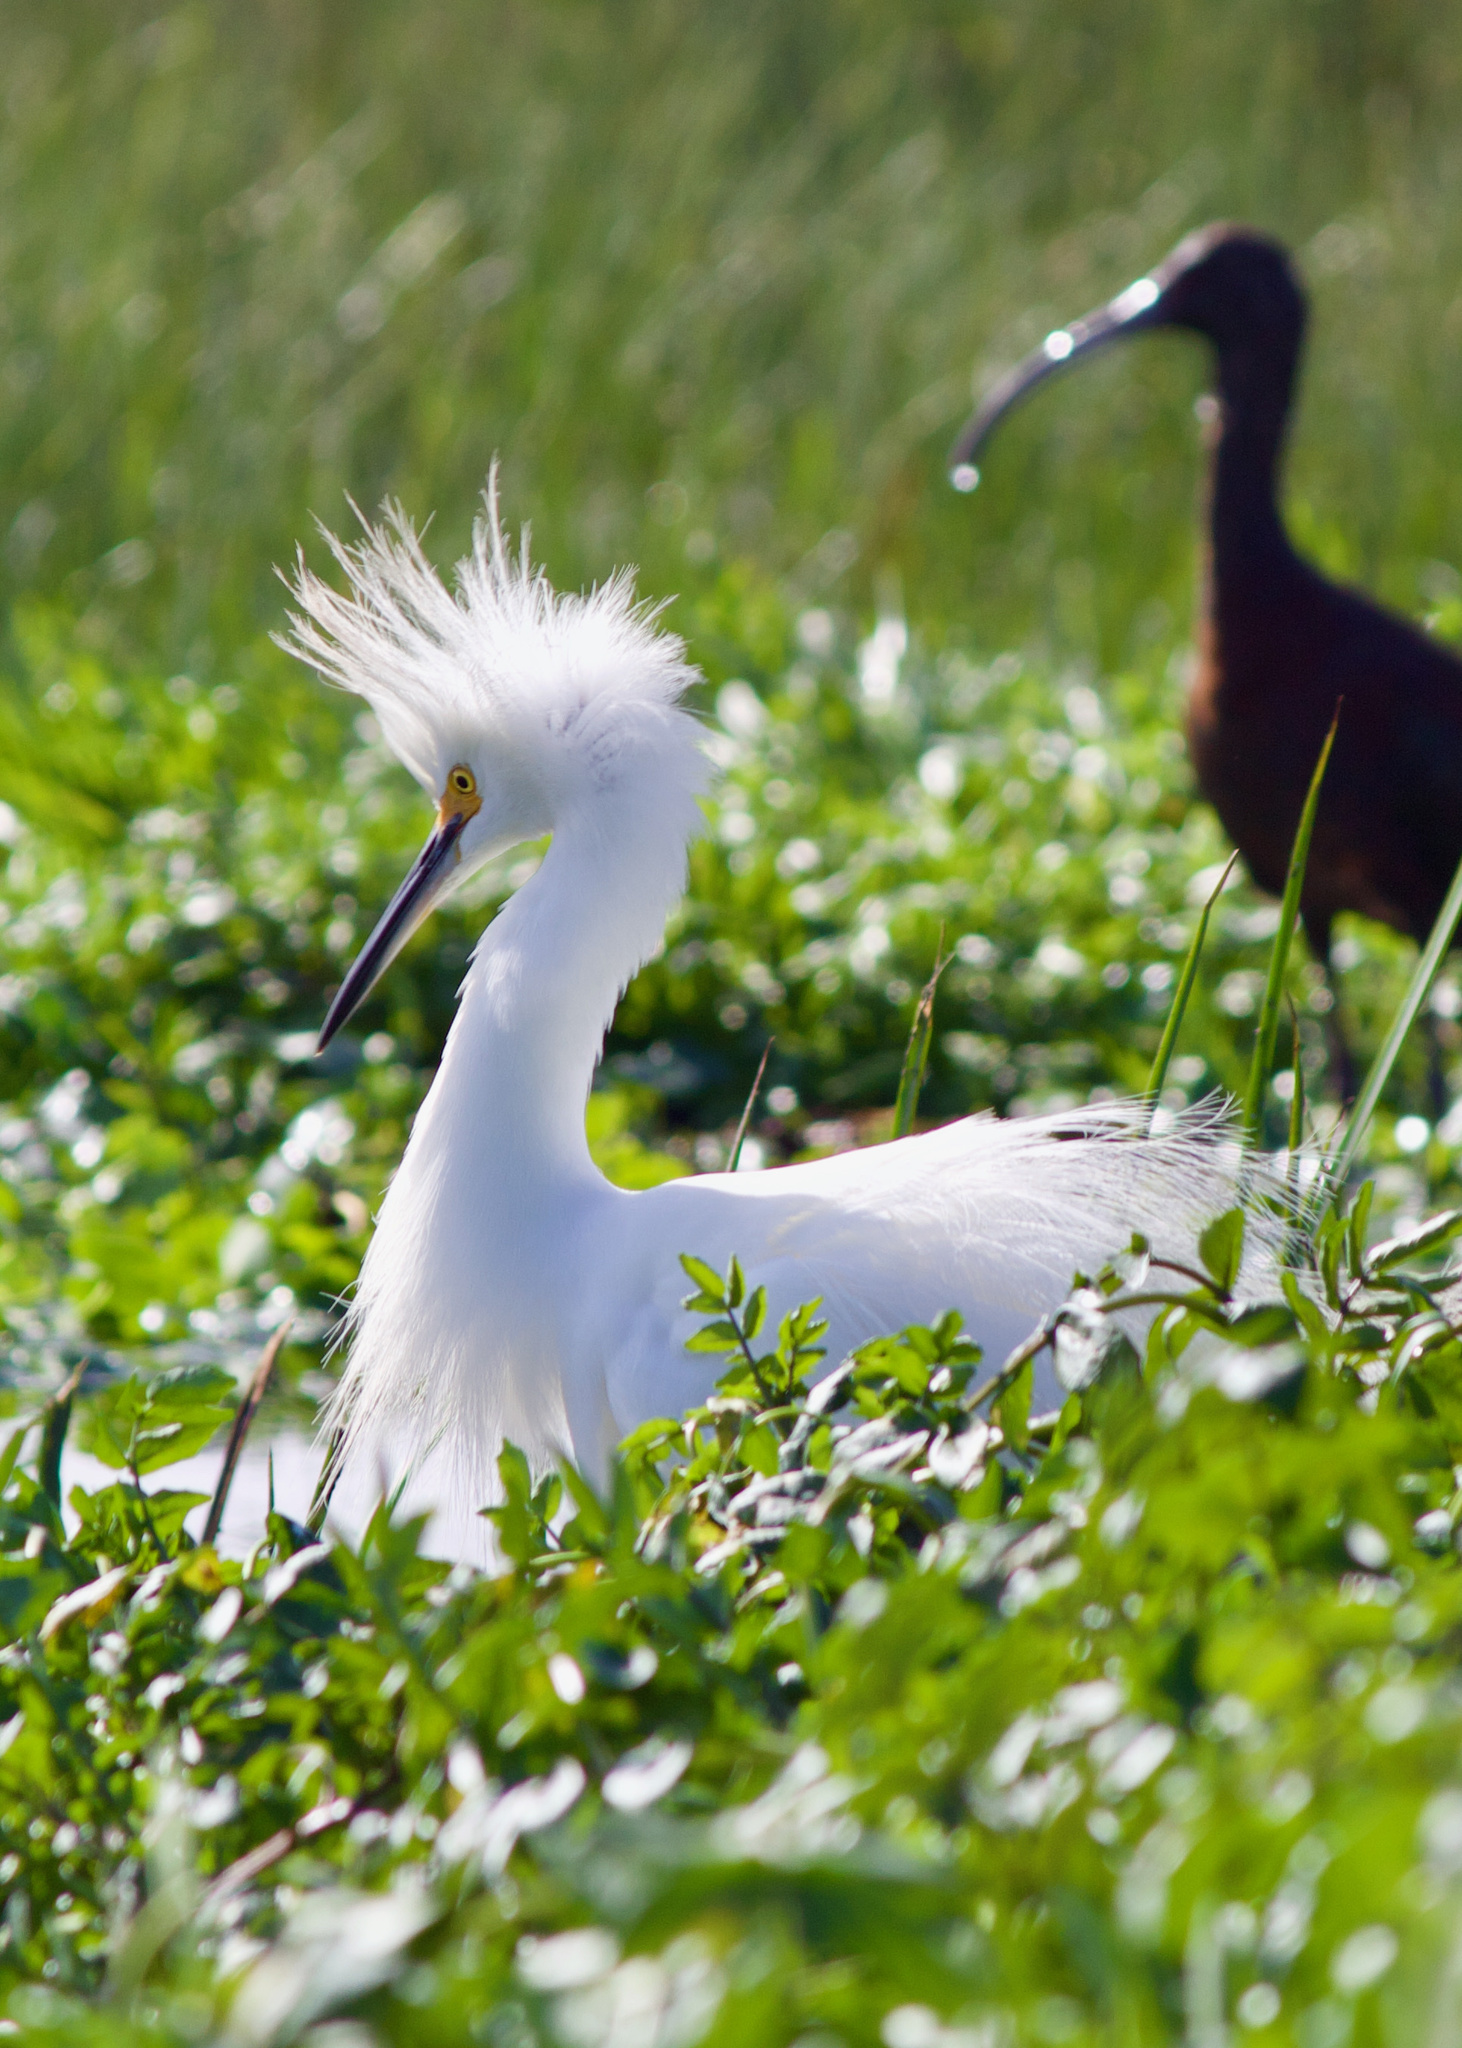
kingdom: Animalia
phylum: Chordata
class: Aves
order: Pelecaniformes
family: Ardeidae
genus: Egretta
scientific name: Egretta thula
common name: Snowy egret
